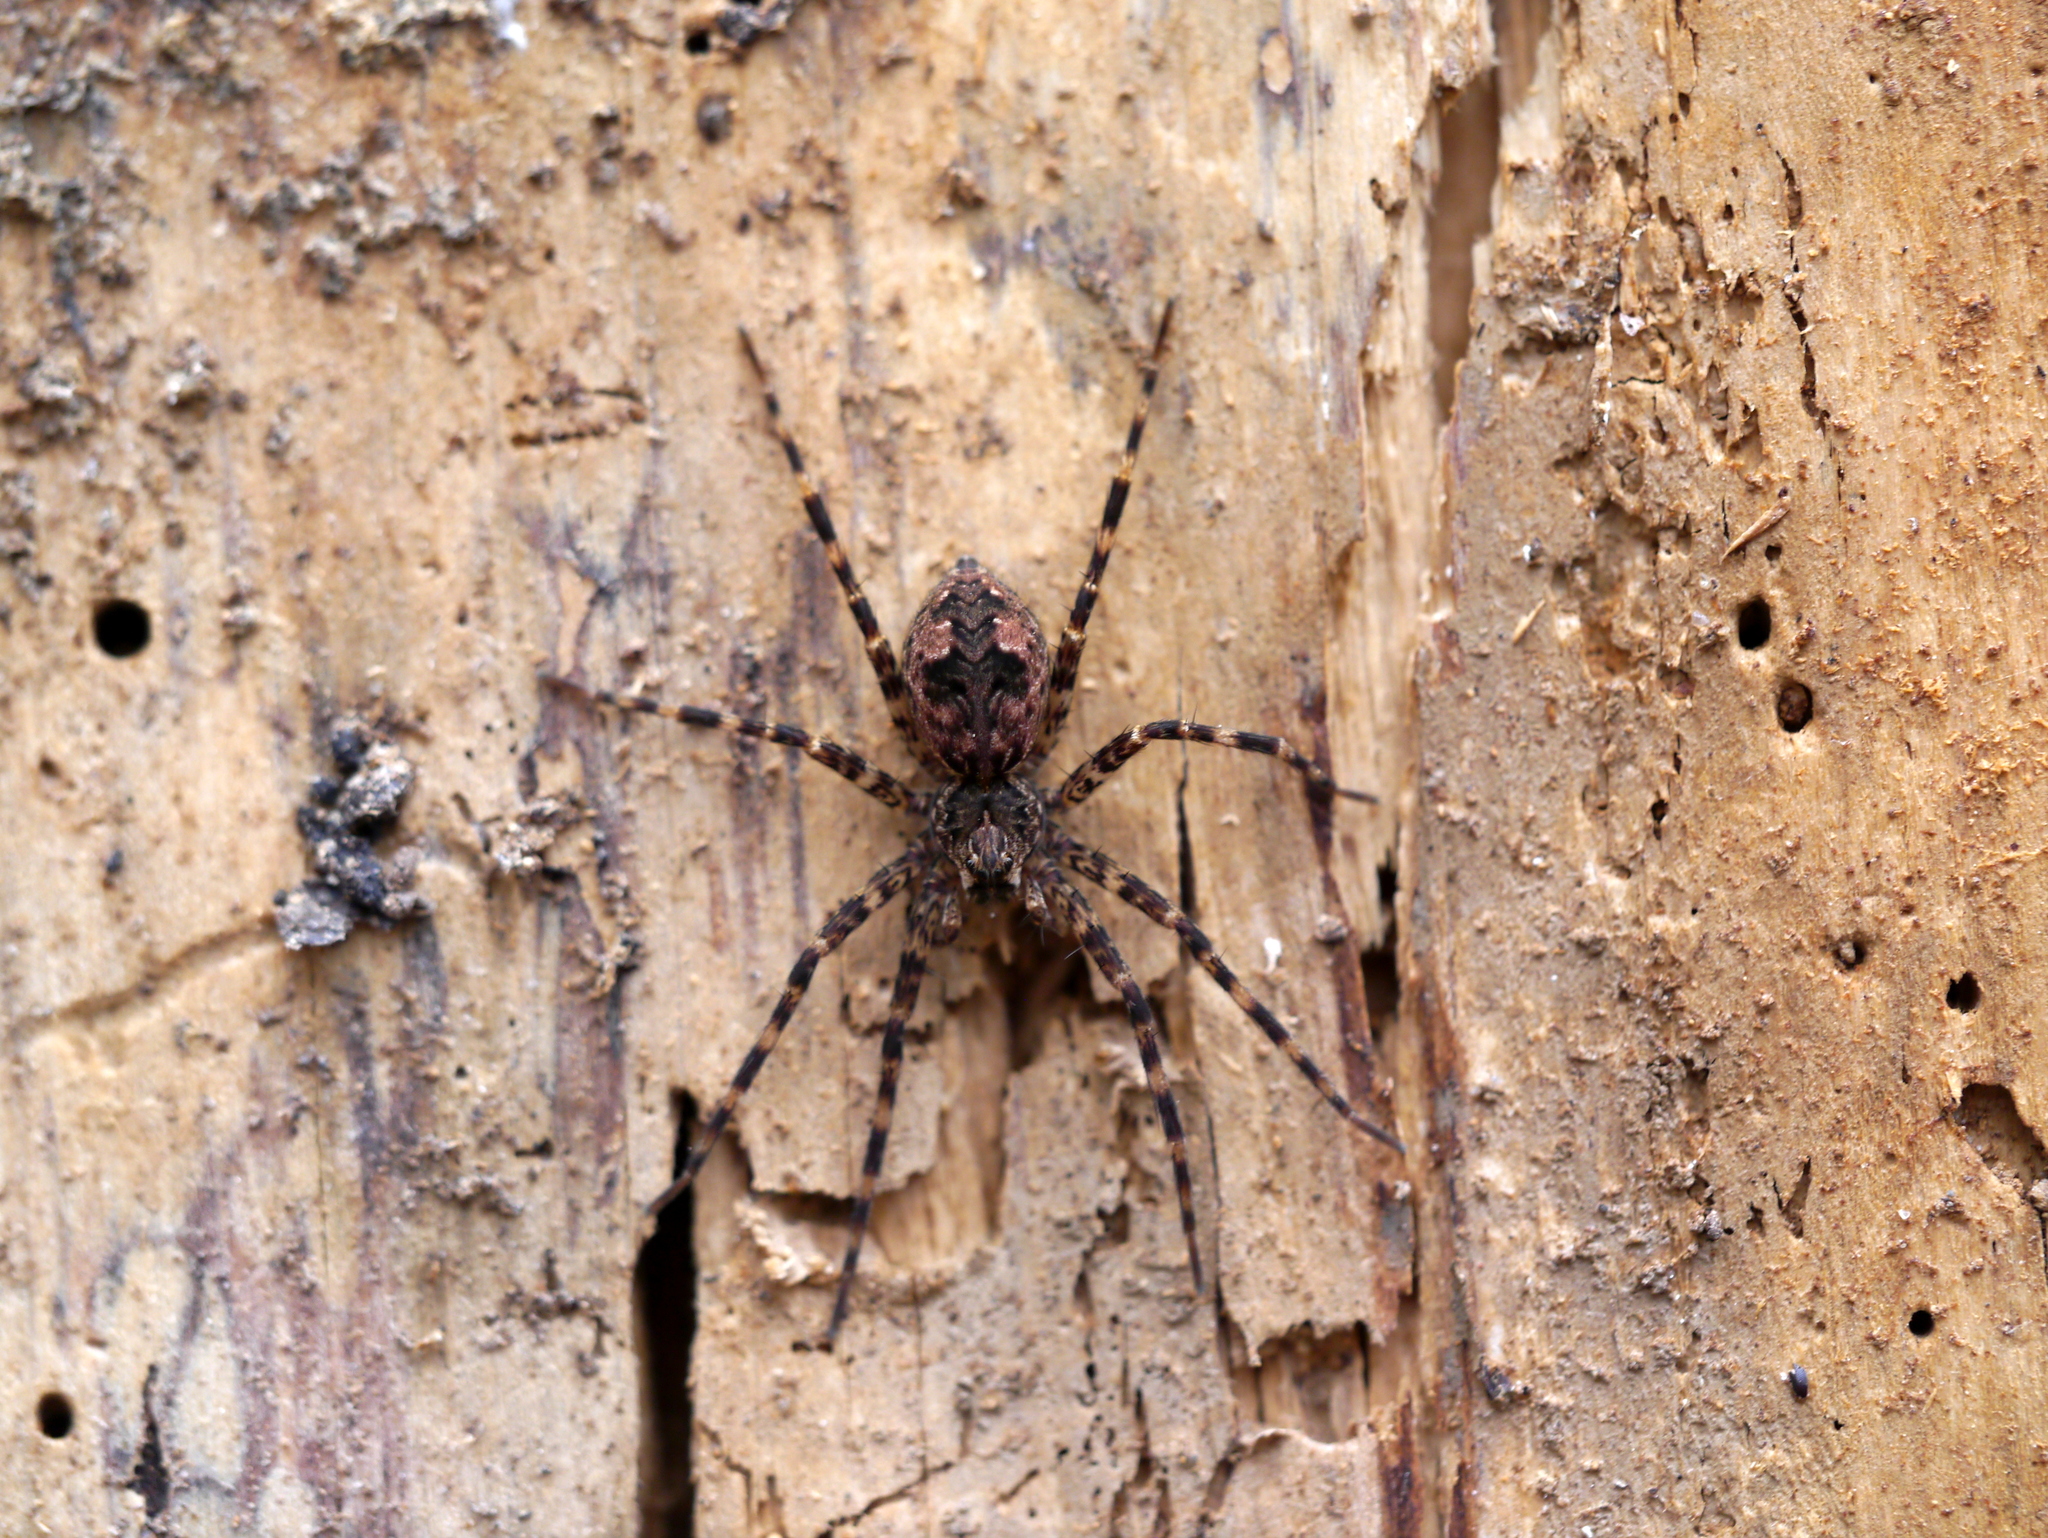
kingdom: Animalia
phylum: Arthropoda
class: Arachnida
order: Araneae
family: Pisauridae
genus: Dolomedes
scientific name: Dolomedes tenebrosus
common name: Dark fishing spider
